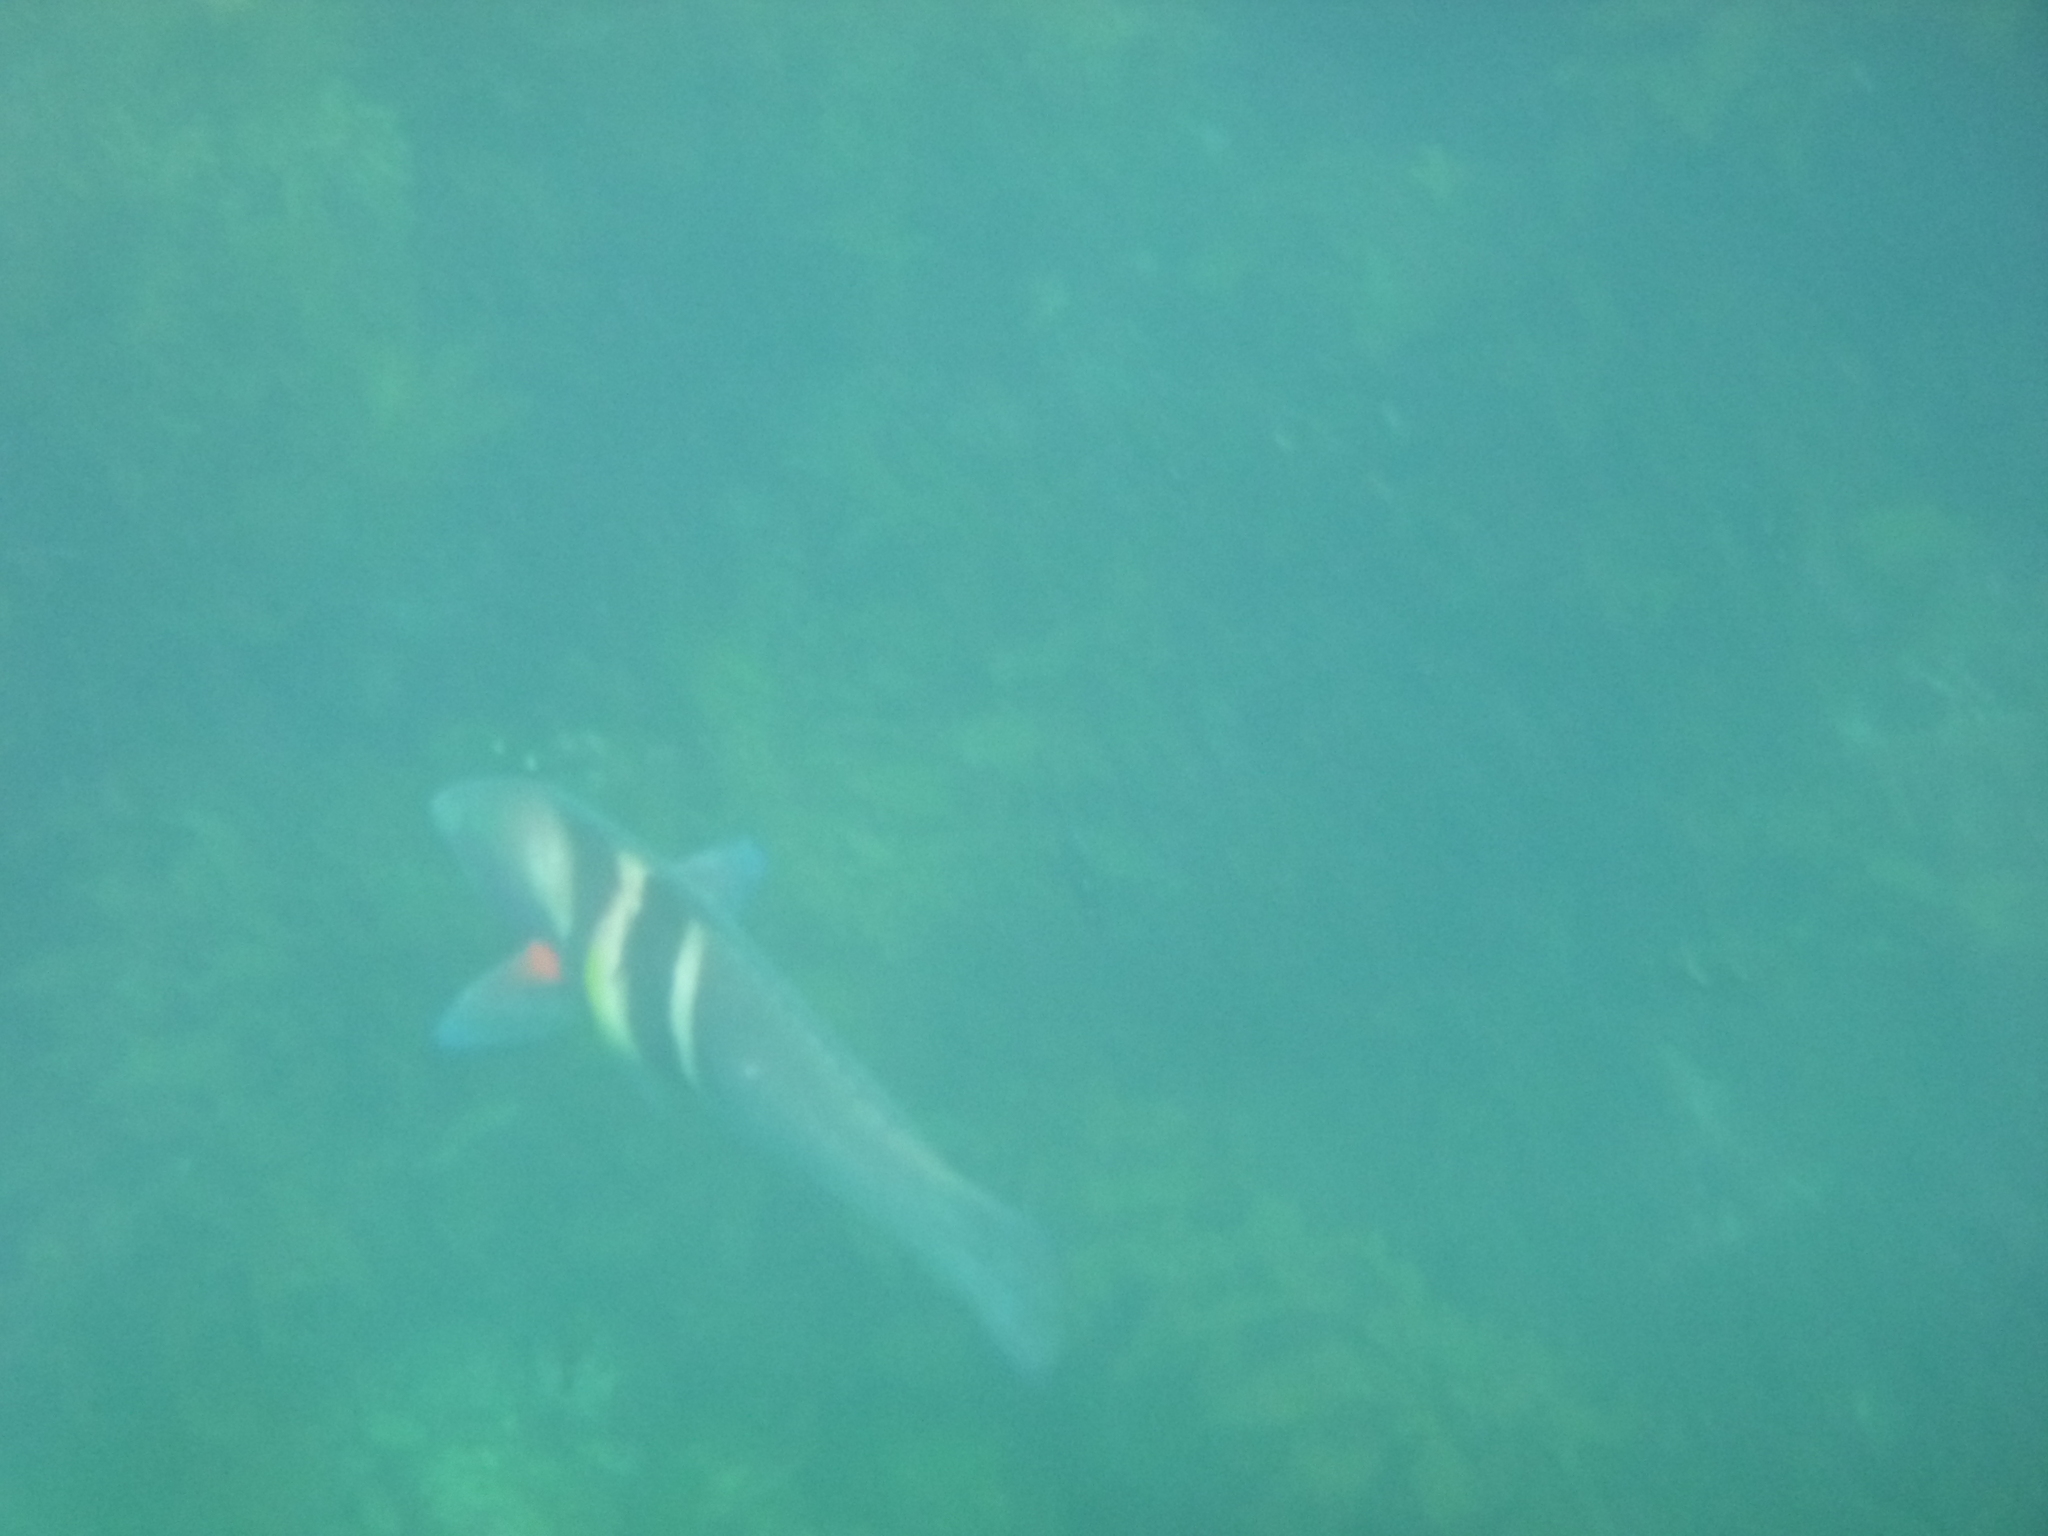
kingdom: Animalia
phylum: Chordata
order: Perciformes
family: Labridae
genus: Coris
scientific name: Coris sandeyeri
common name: Sandager's wrasse
